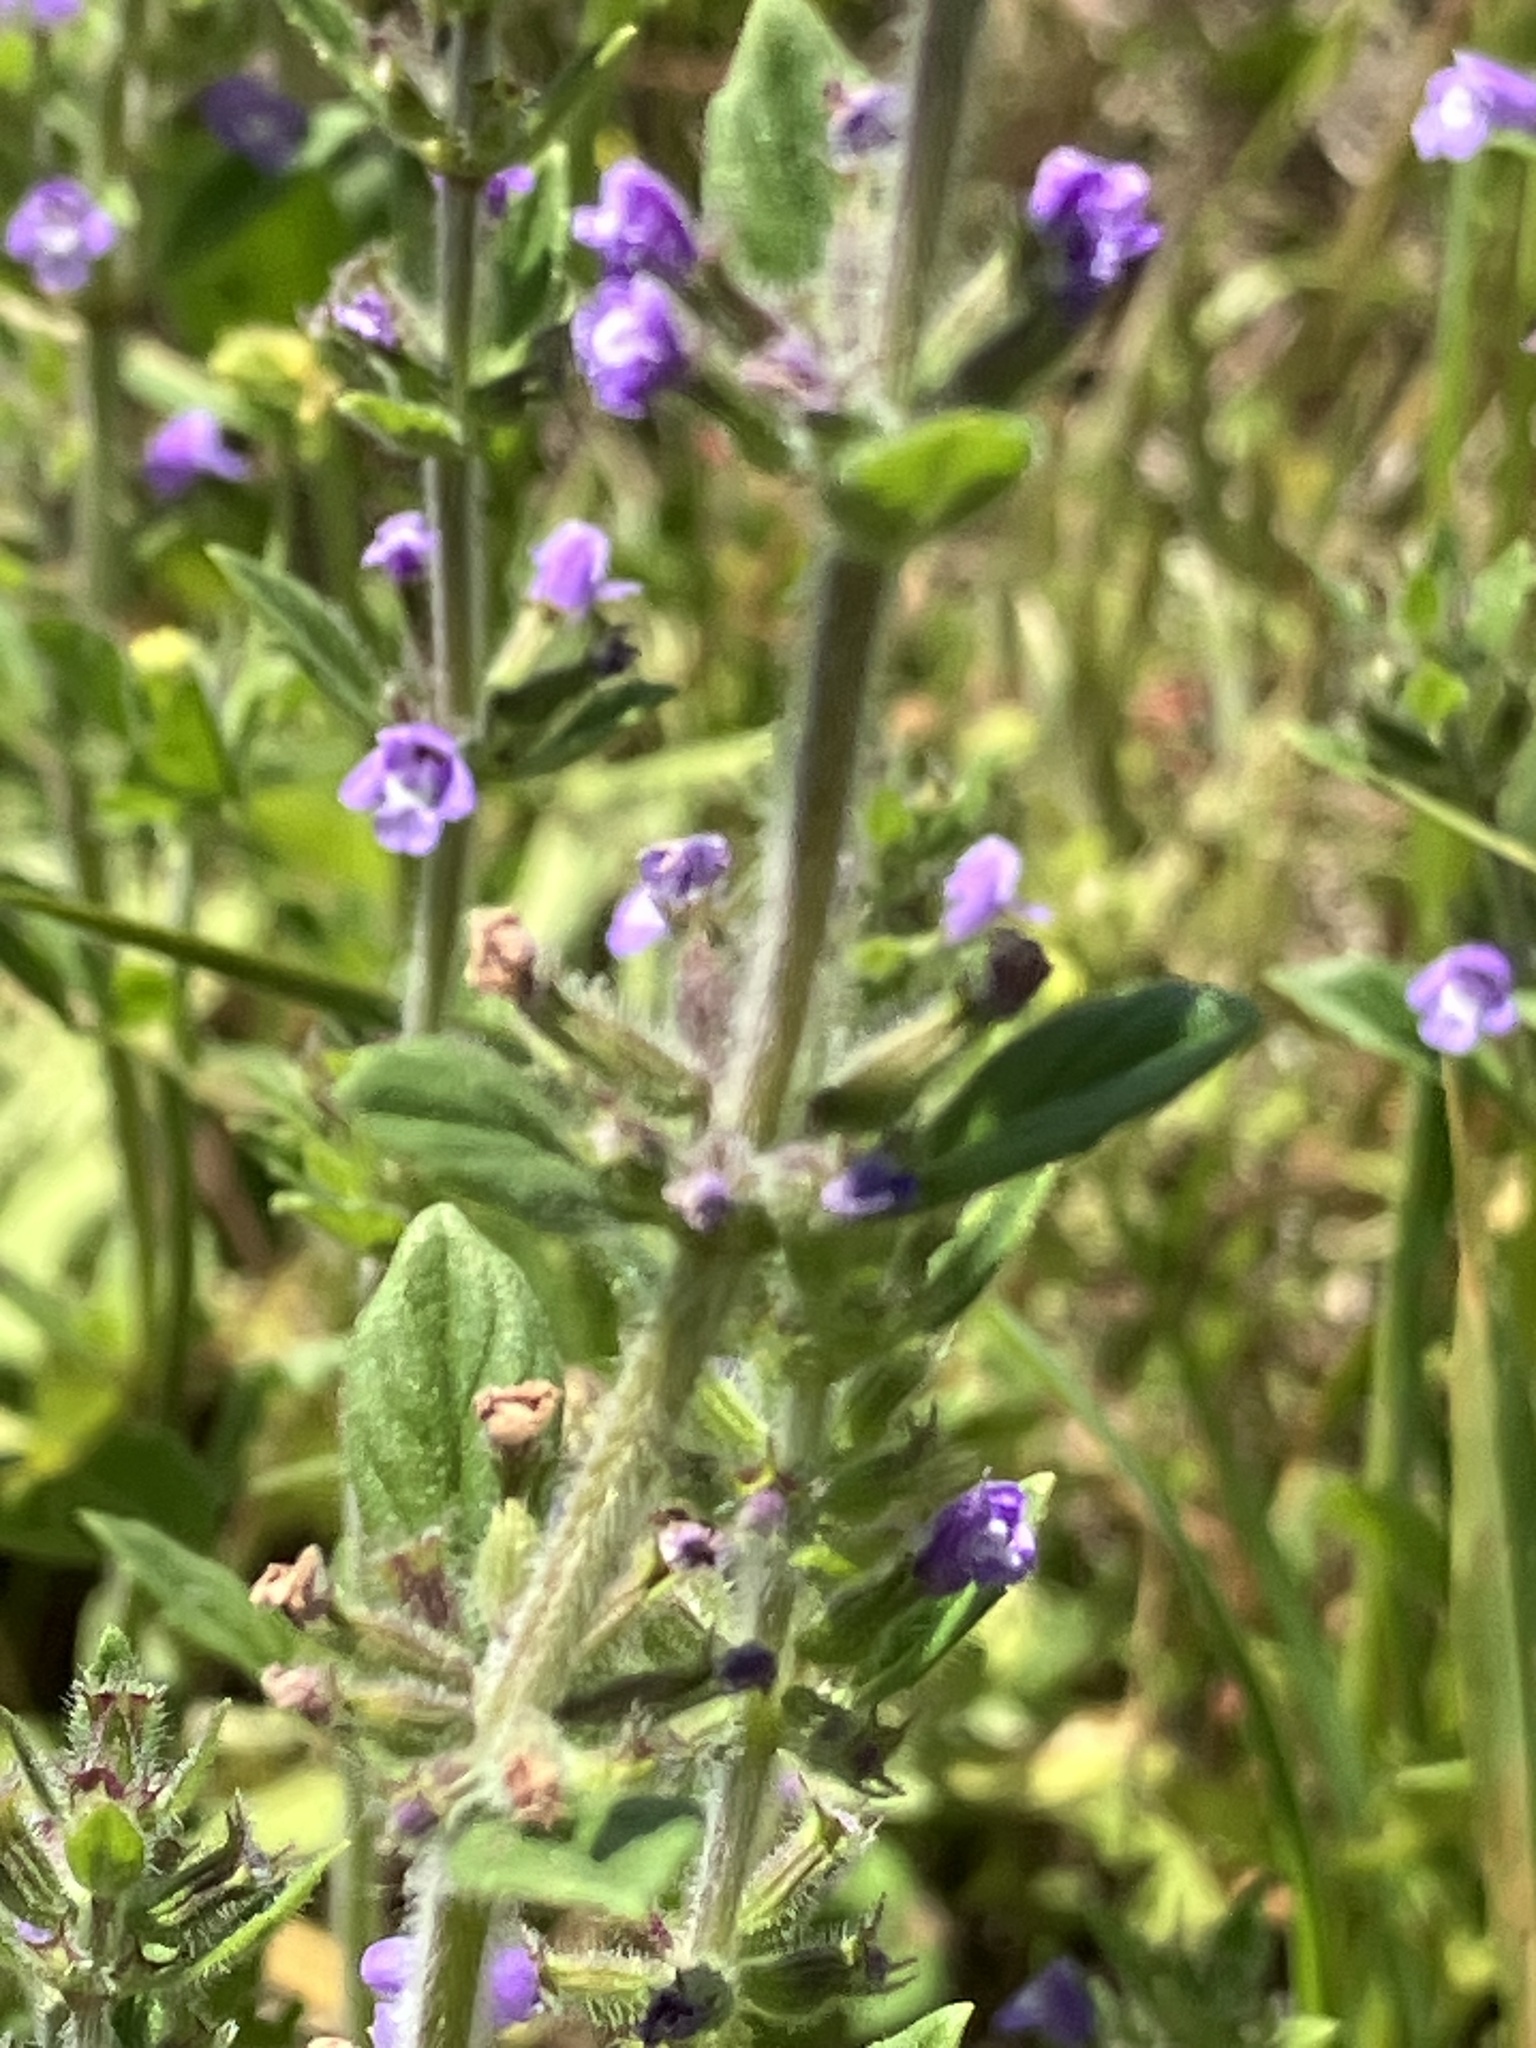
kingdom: Plantae
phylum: Tracheophyta
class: Magnoliopsida
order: Lamiales
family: Lamiaceae
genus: Clinopodium
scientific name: Clinopodium acinos
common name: Basil thyme
